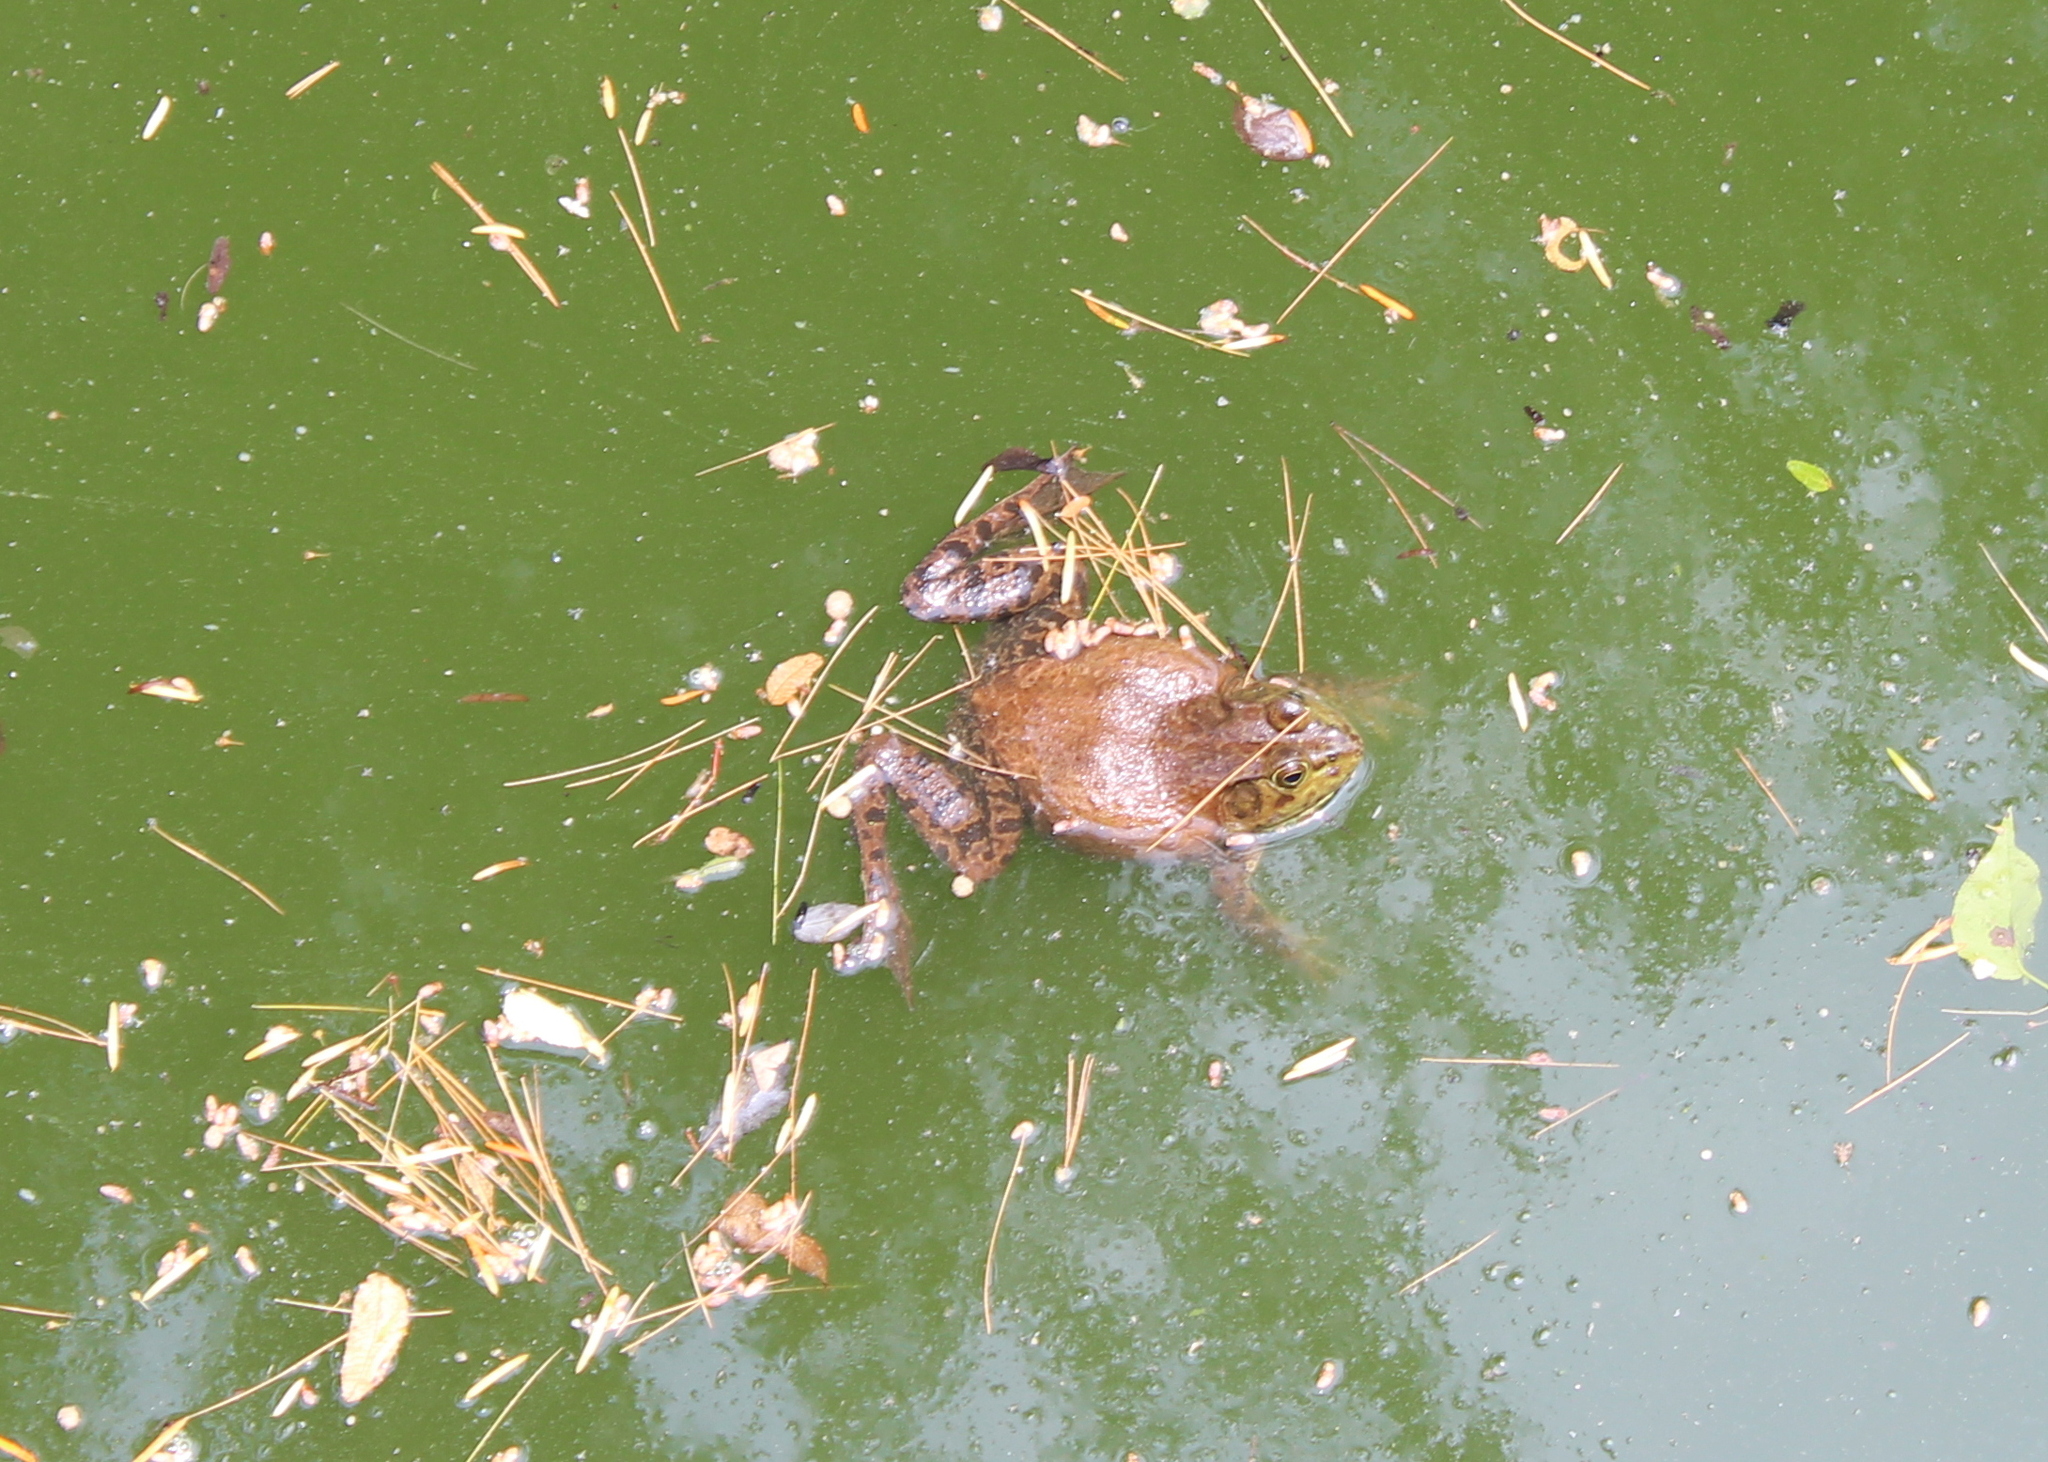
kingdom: Animalia
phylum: Chordata
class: Amphibia
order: Anura
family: Ranidae
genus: Lithobates
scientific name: Lithobates catesbeianus
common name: American bullfrog
